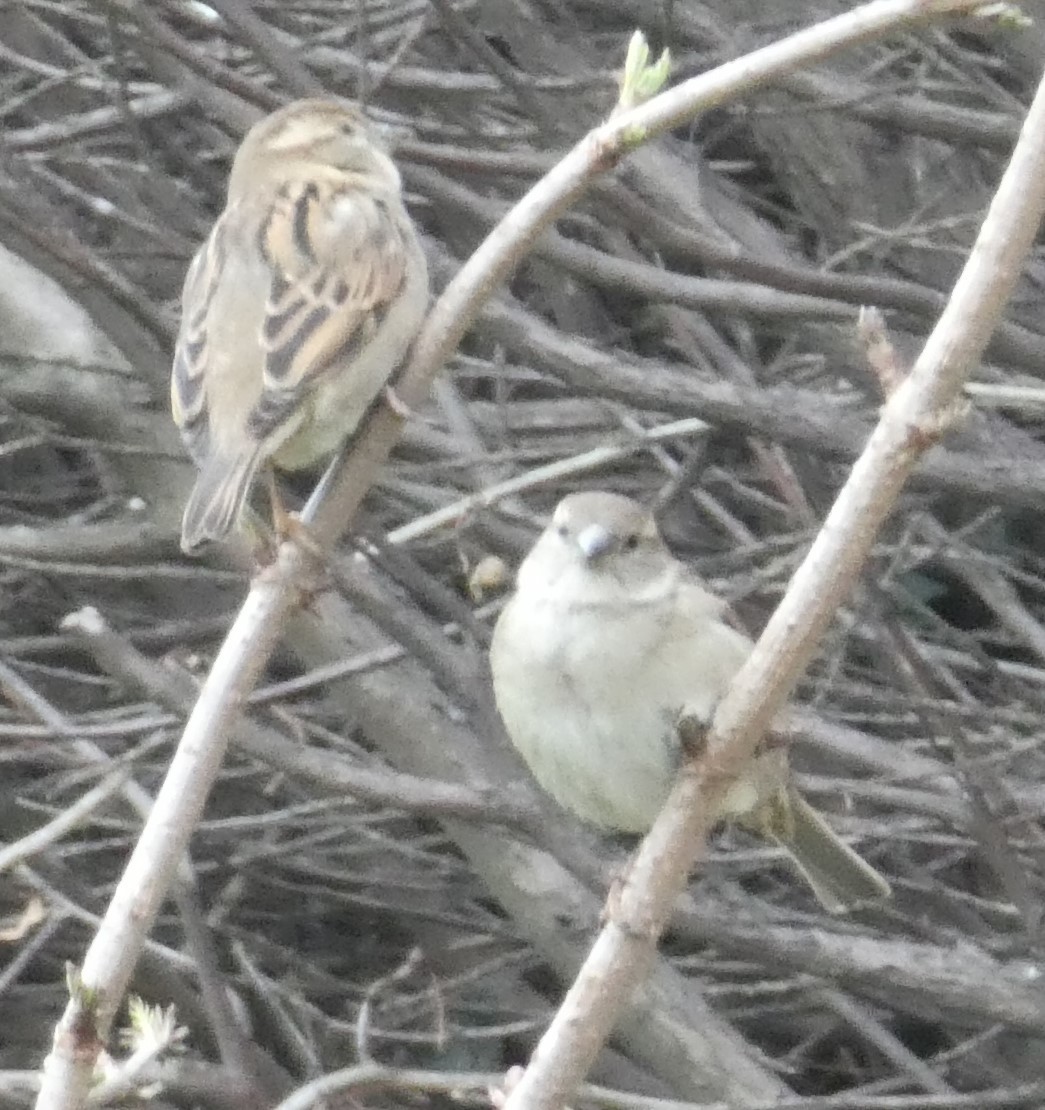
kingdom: Animalia
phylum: Chordata
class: Aves
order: Passeriformes
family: Passeridae
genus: Passer
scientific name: Passer domesticus
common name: House sparrow
